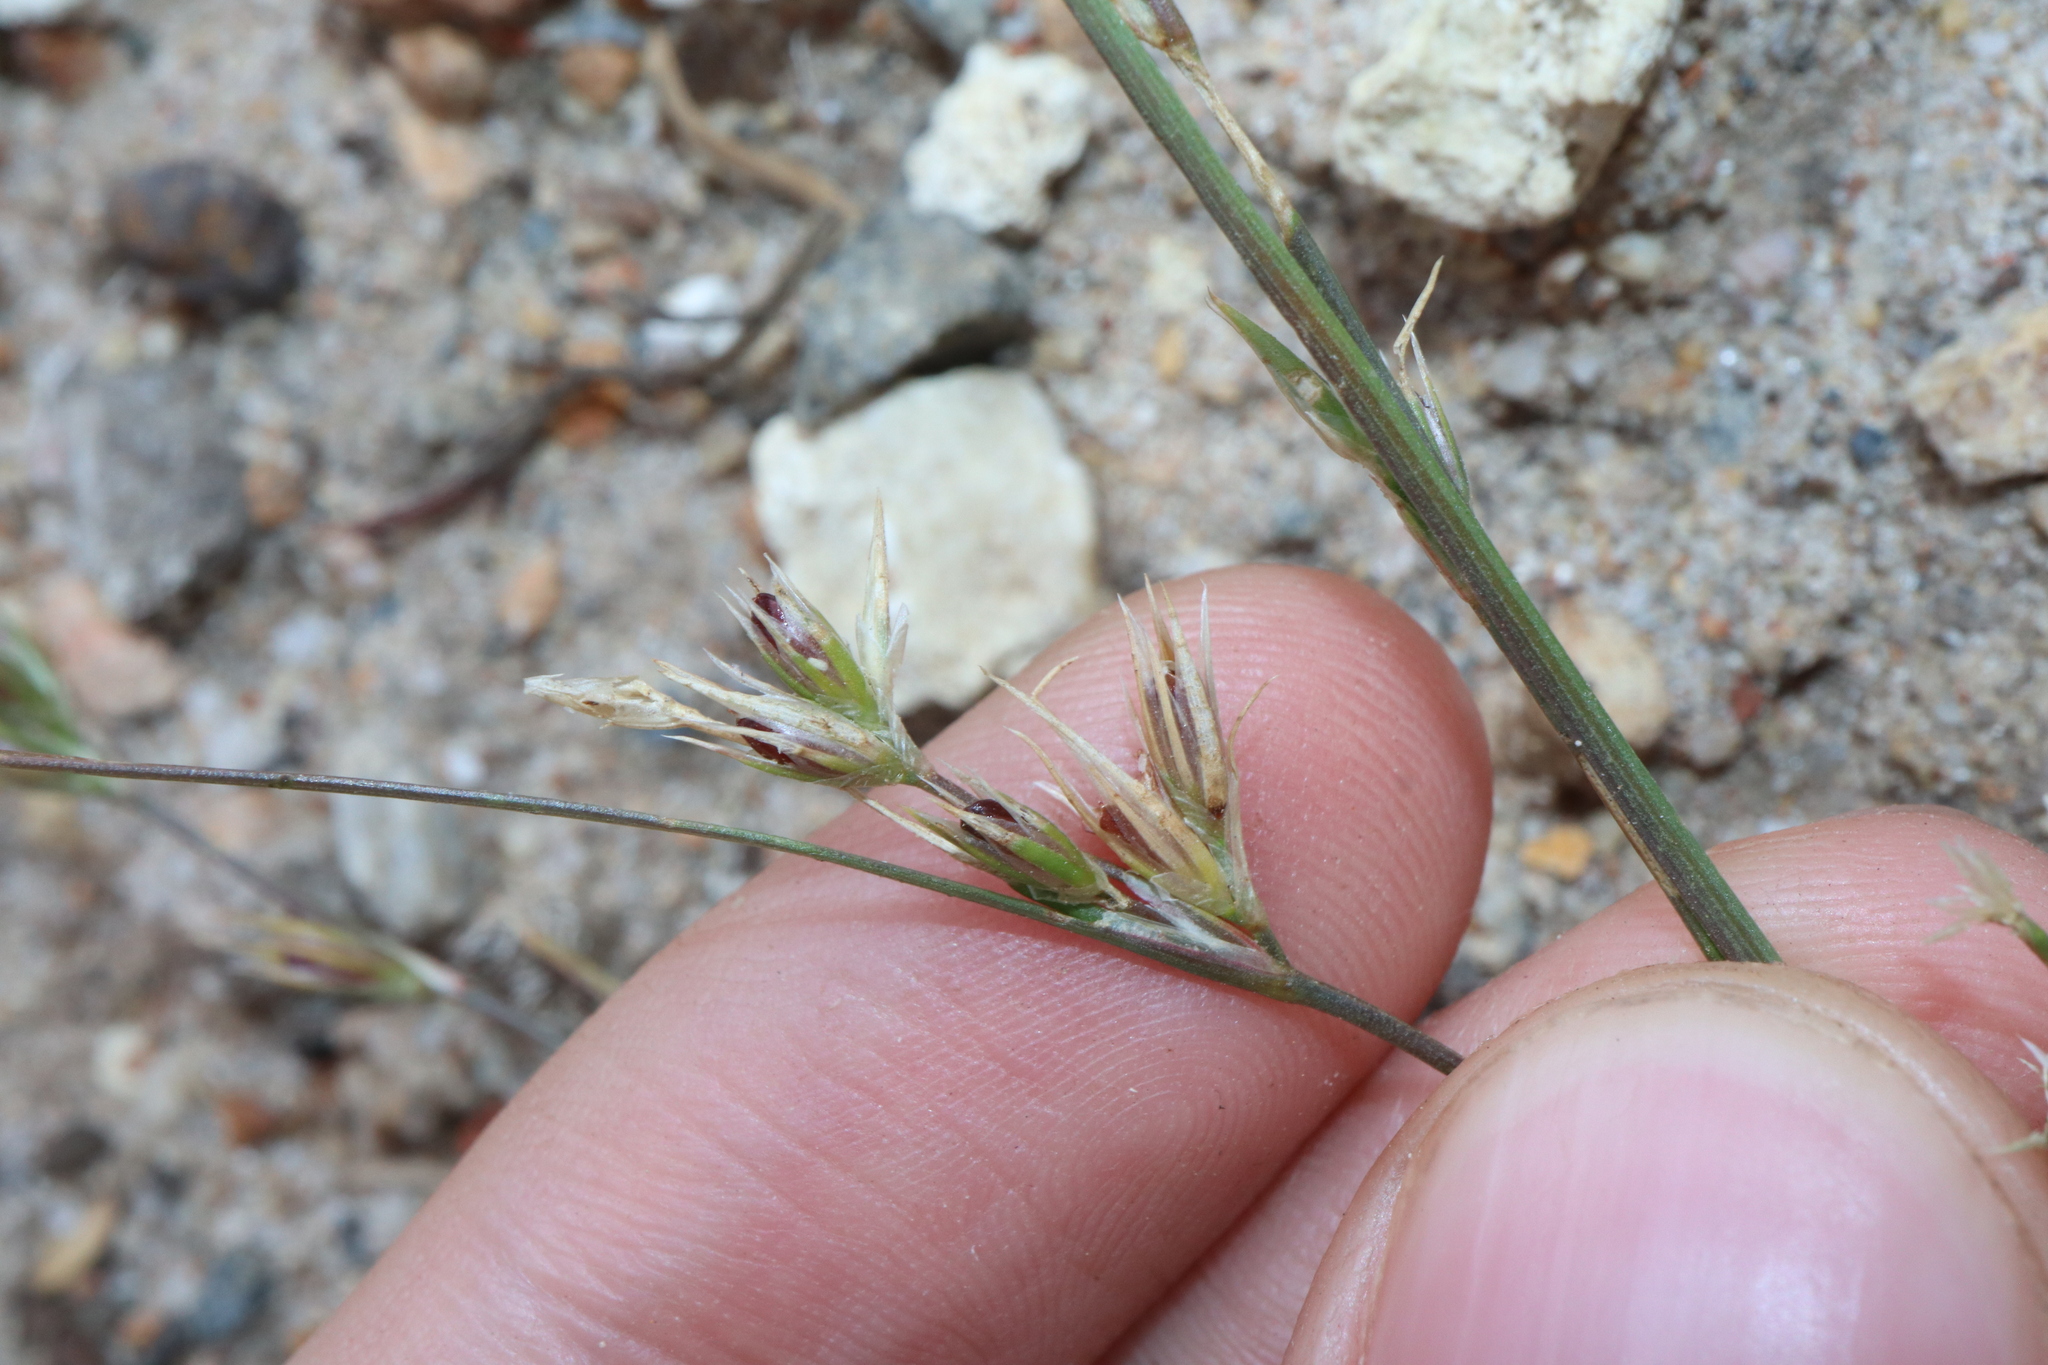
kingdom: Plantae
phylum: Tracheophyta
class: Liliopsida
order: Poales
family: Juncaceae
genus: Juncus
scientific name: Juncus bufonius
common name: Toad rush
